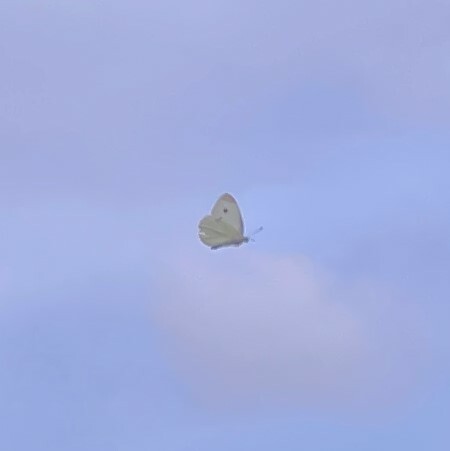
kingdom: Animalia
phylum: Arthropoda
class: Insecta
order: Lepidoptera
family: Pieridae
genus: Pieris
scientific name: Pieris rapae
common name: Small white
